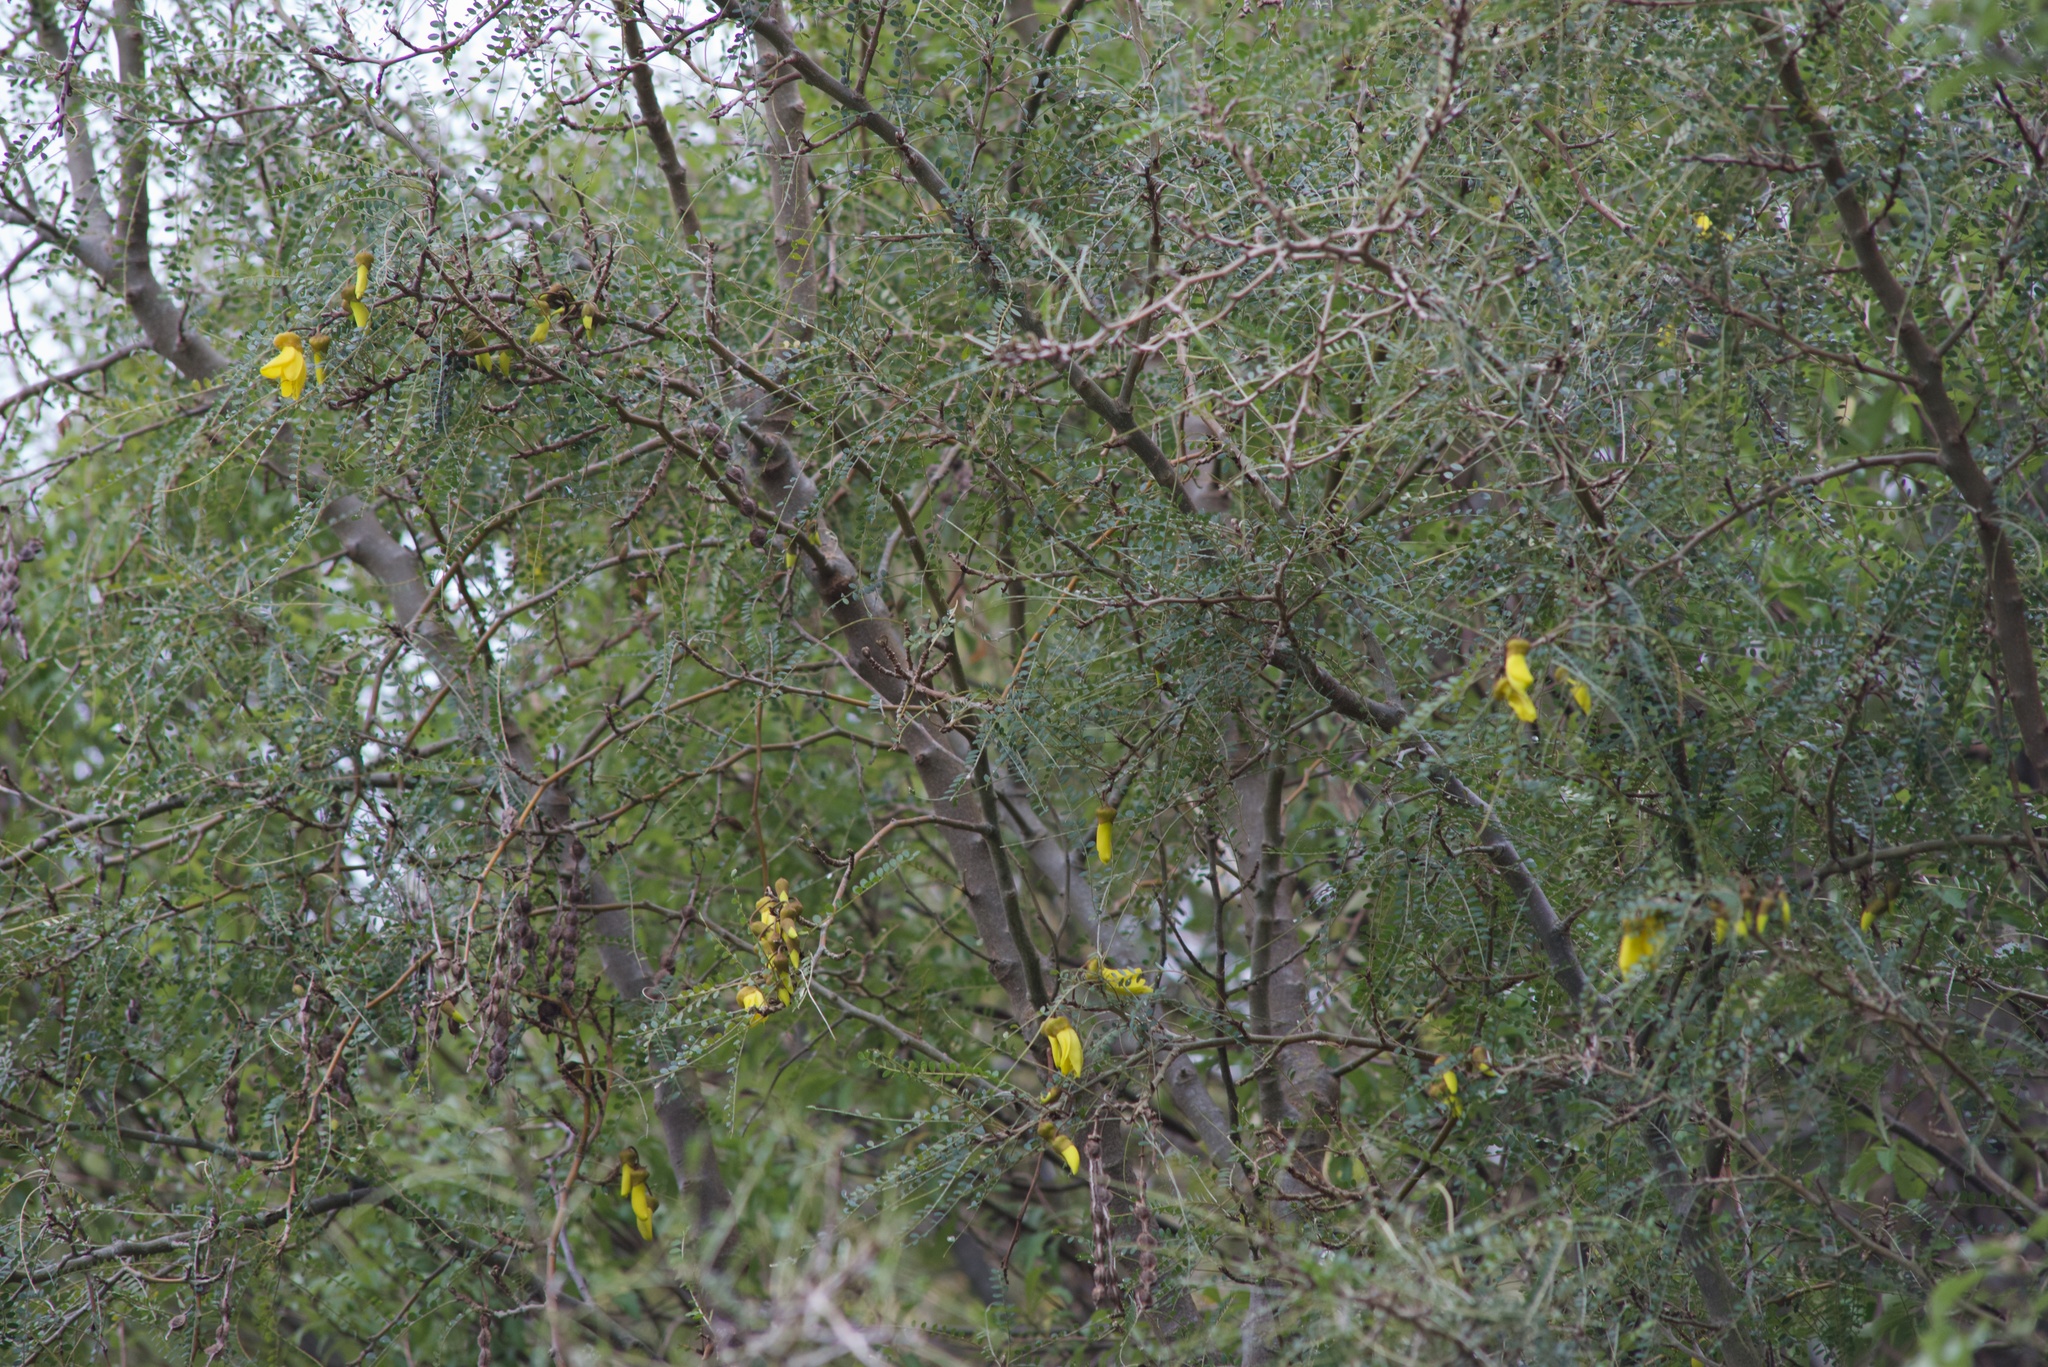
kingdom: Plantae
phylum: Tracheophyta
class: Magnoliopsida
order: Fabales
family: Fabaceae
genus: Sophora
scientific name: Sophora microphylla
